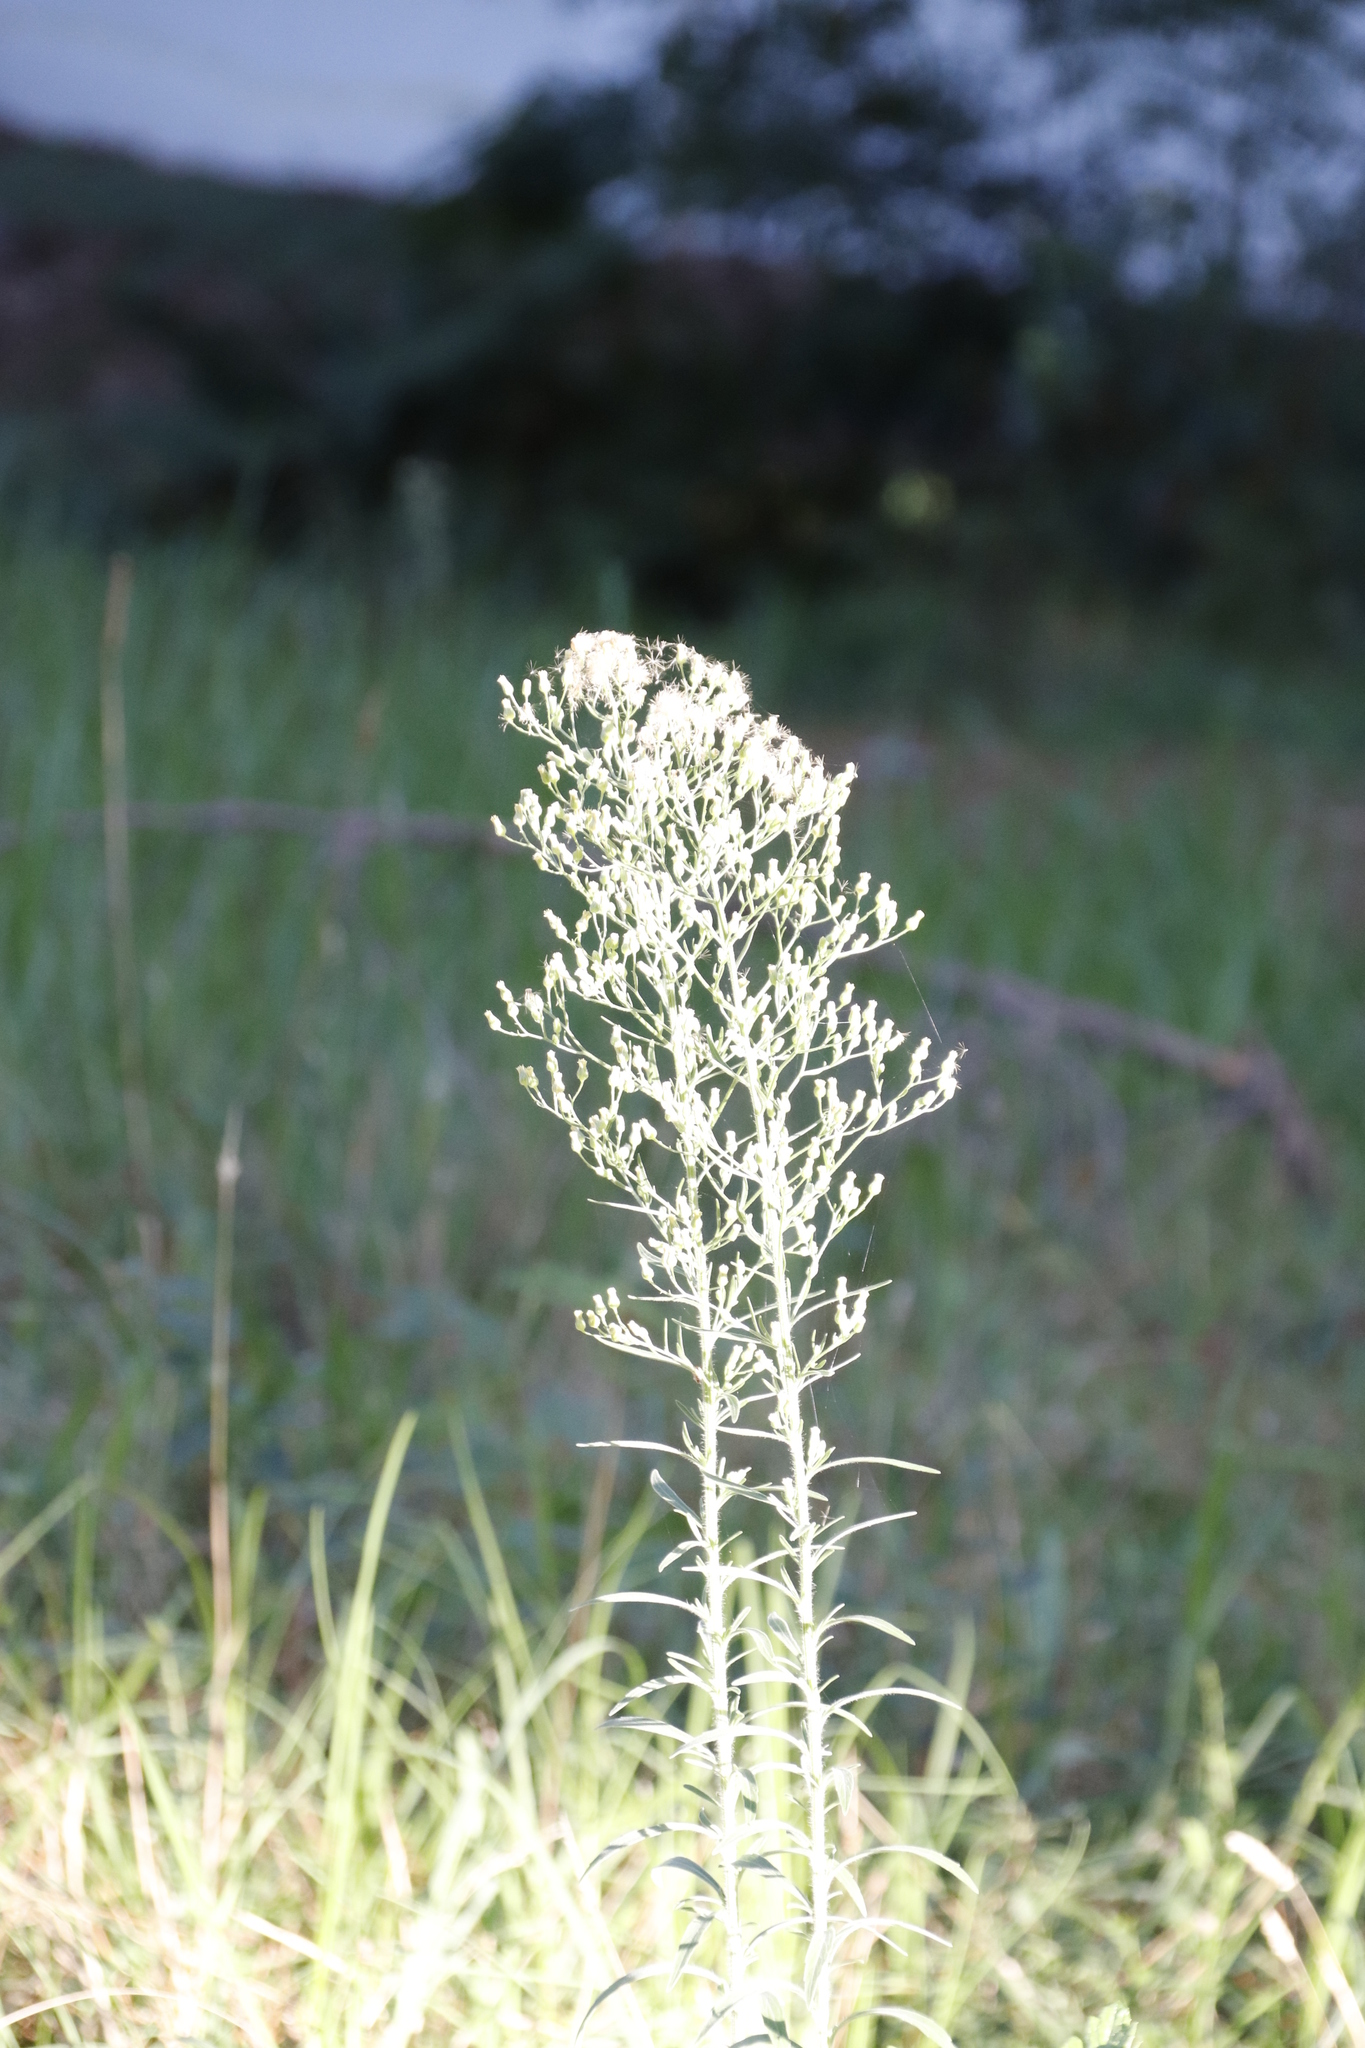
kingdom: Plantae
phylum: Tracheophyta
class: Magnoliopsida
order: Asterales
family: Asteraceae
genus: Erigeron
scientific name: Erigeron sumatrensis
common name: Daisy
